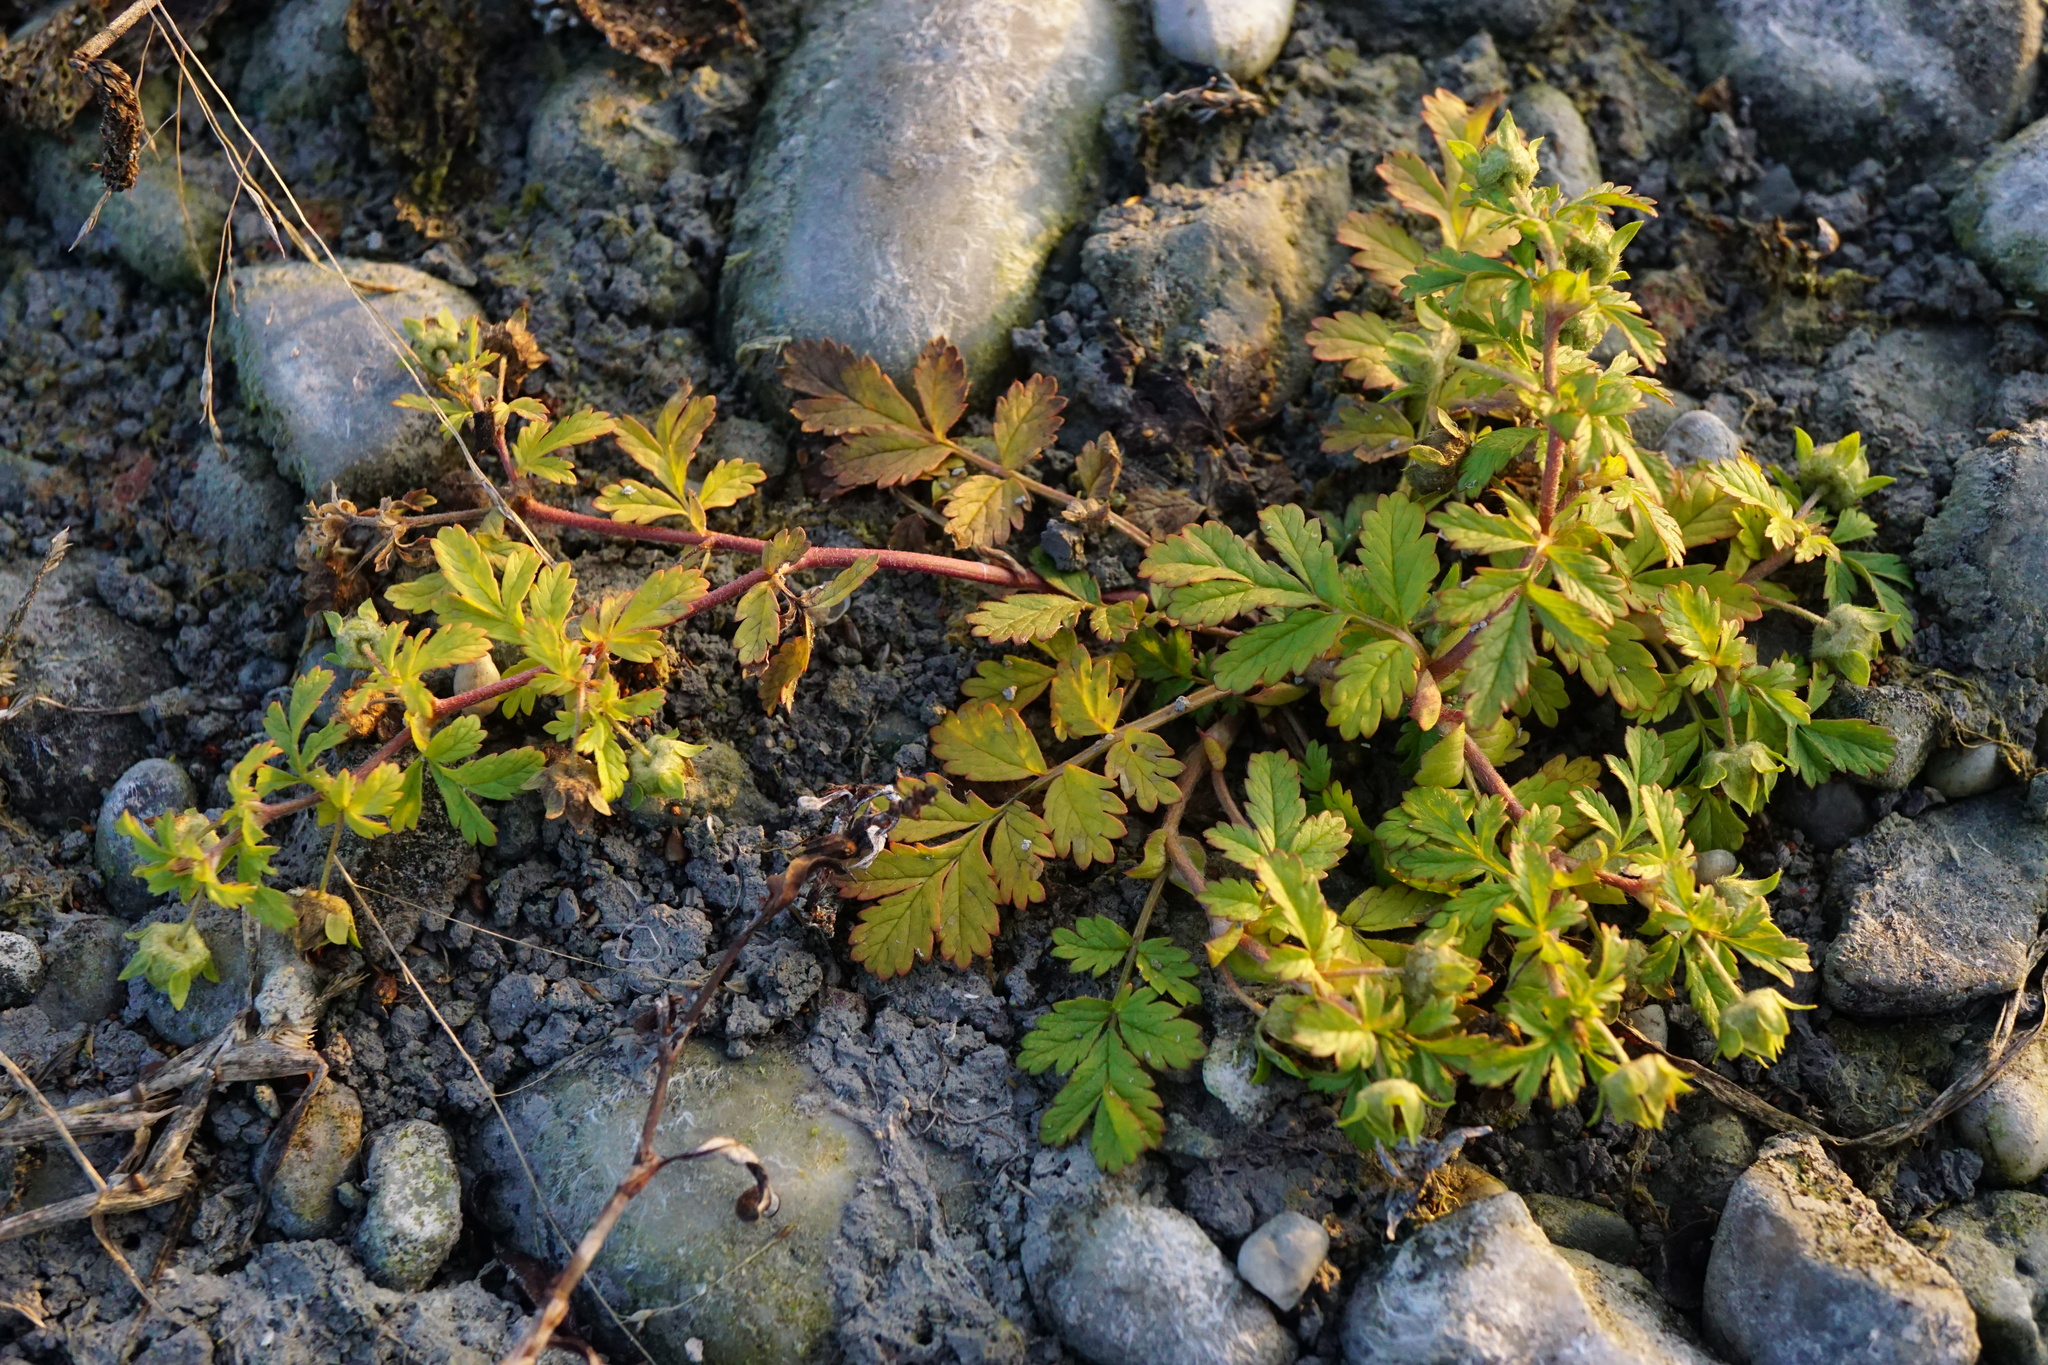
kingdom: Plantae
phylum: Tracheophyta
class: Magnoliopsida
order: Rosales
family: Rosaceae
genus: Potentilla
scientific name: Potentilla supina
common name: Prostrate cinquefoil
